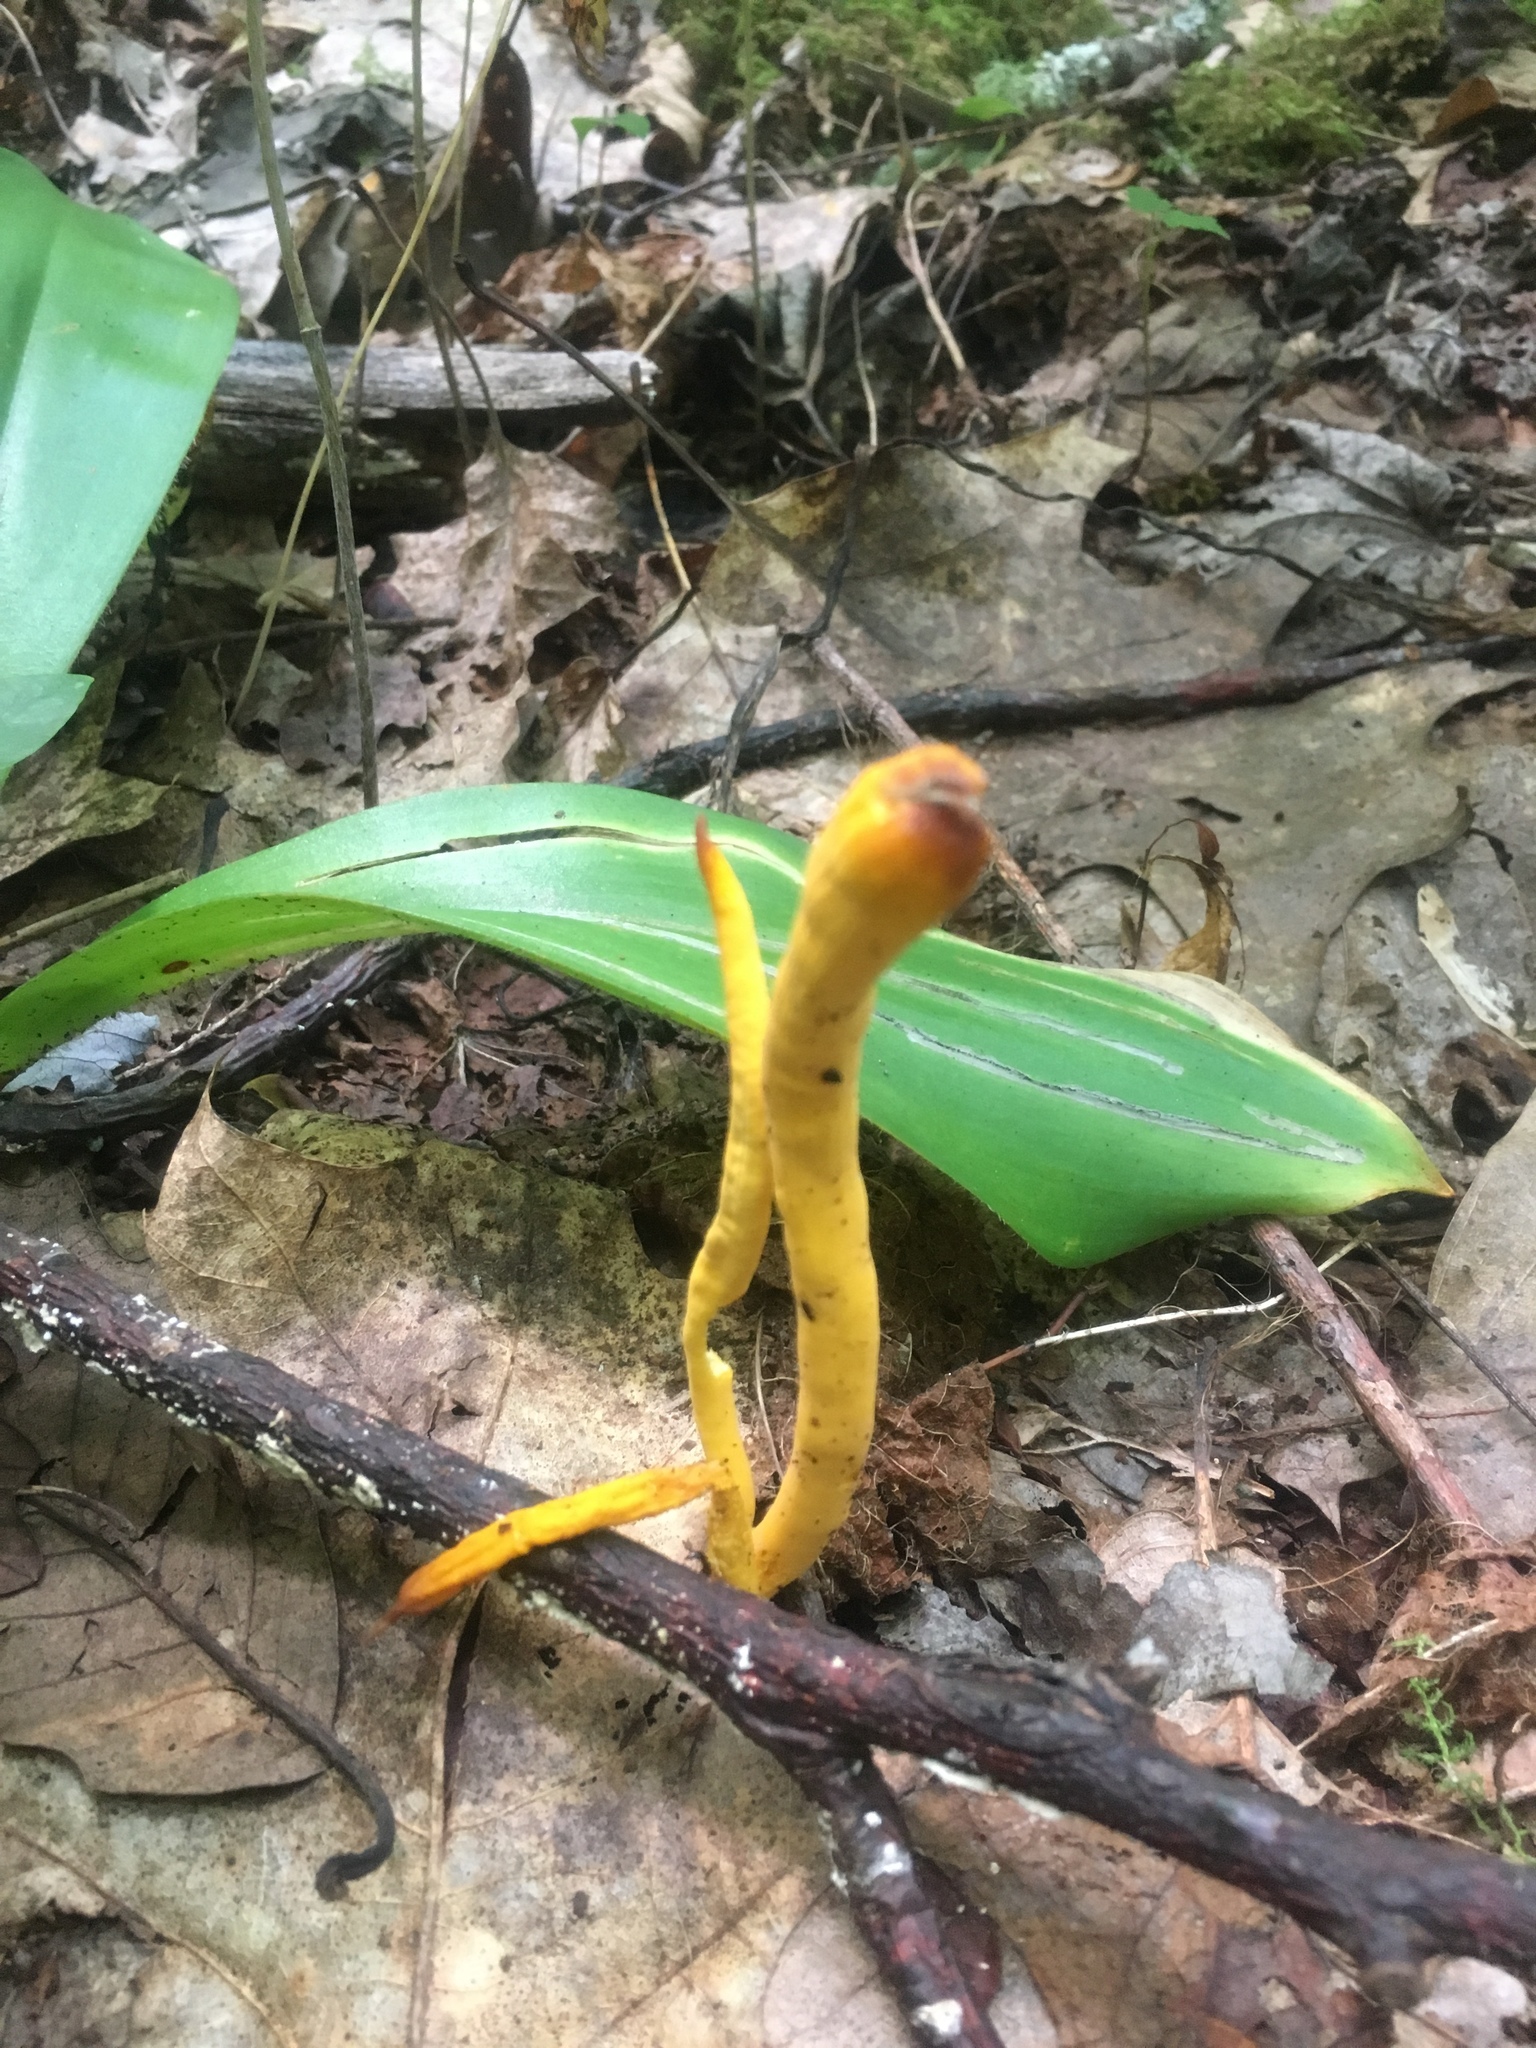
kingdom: Fungi
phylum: Basidiomycota
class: Agaricomycetes
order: Agaricales
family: Clavariaceae
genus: Clavulinopsis
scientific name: Clavulinopsis fusiformis
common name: Golden spindles
